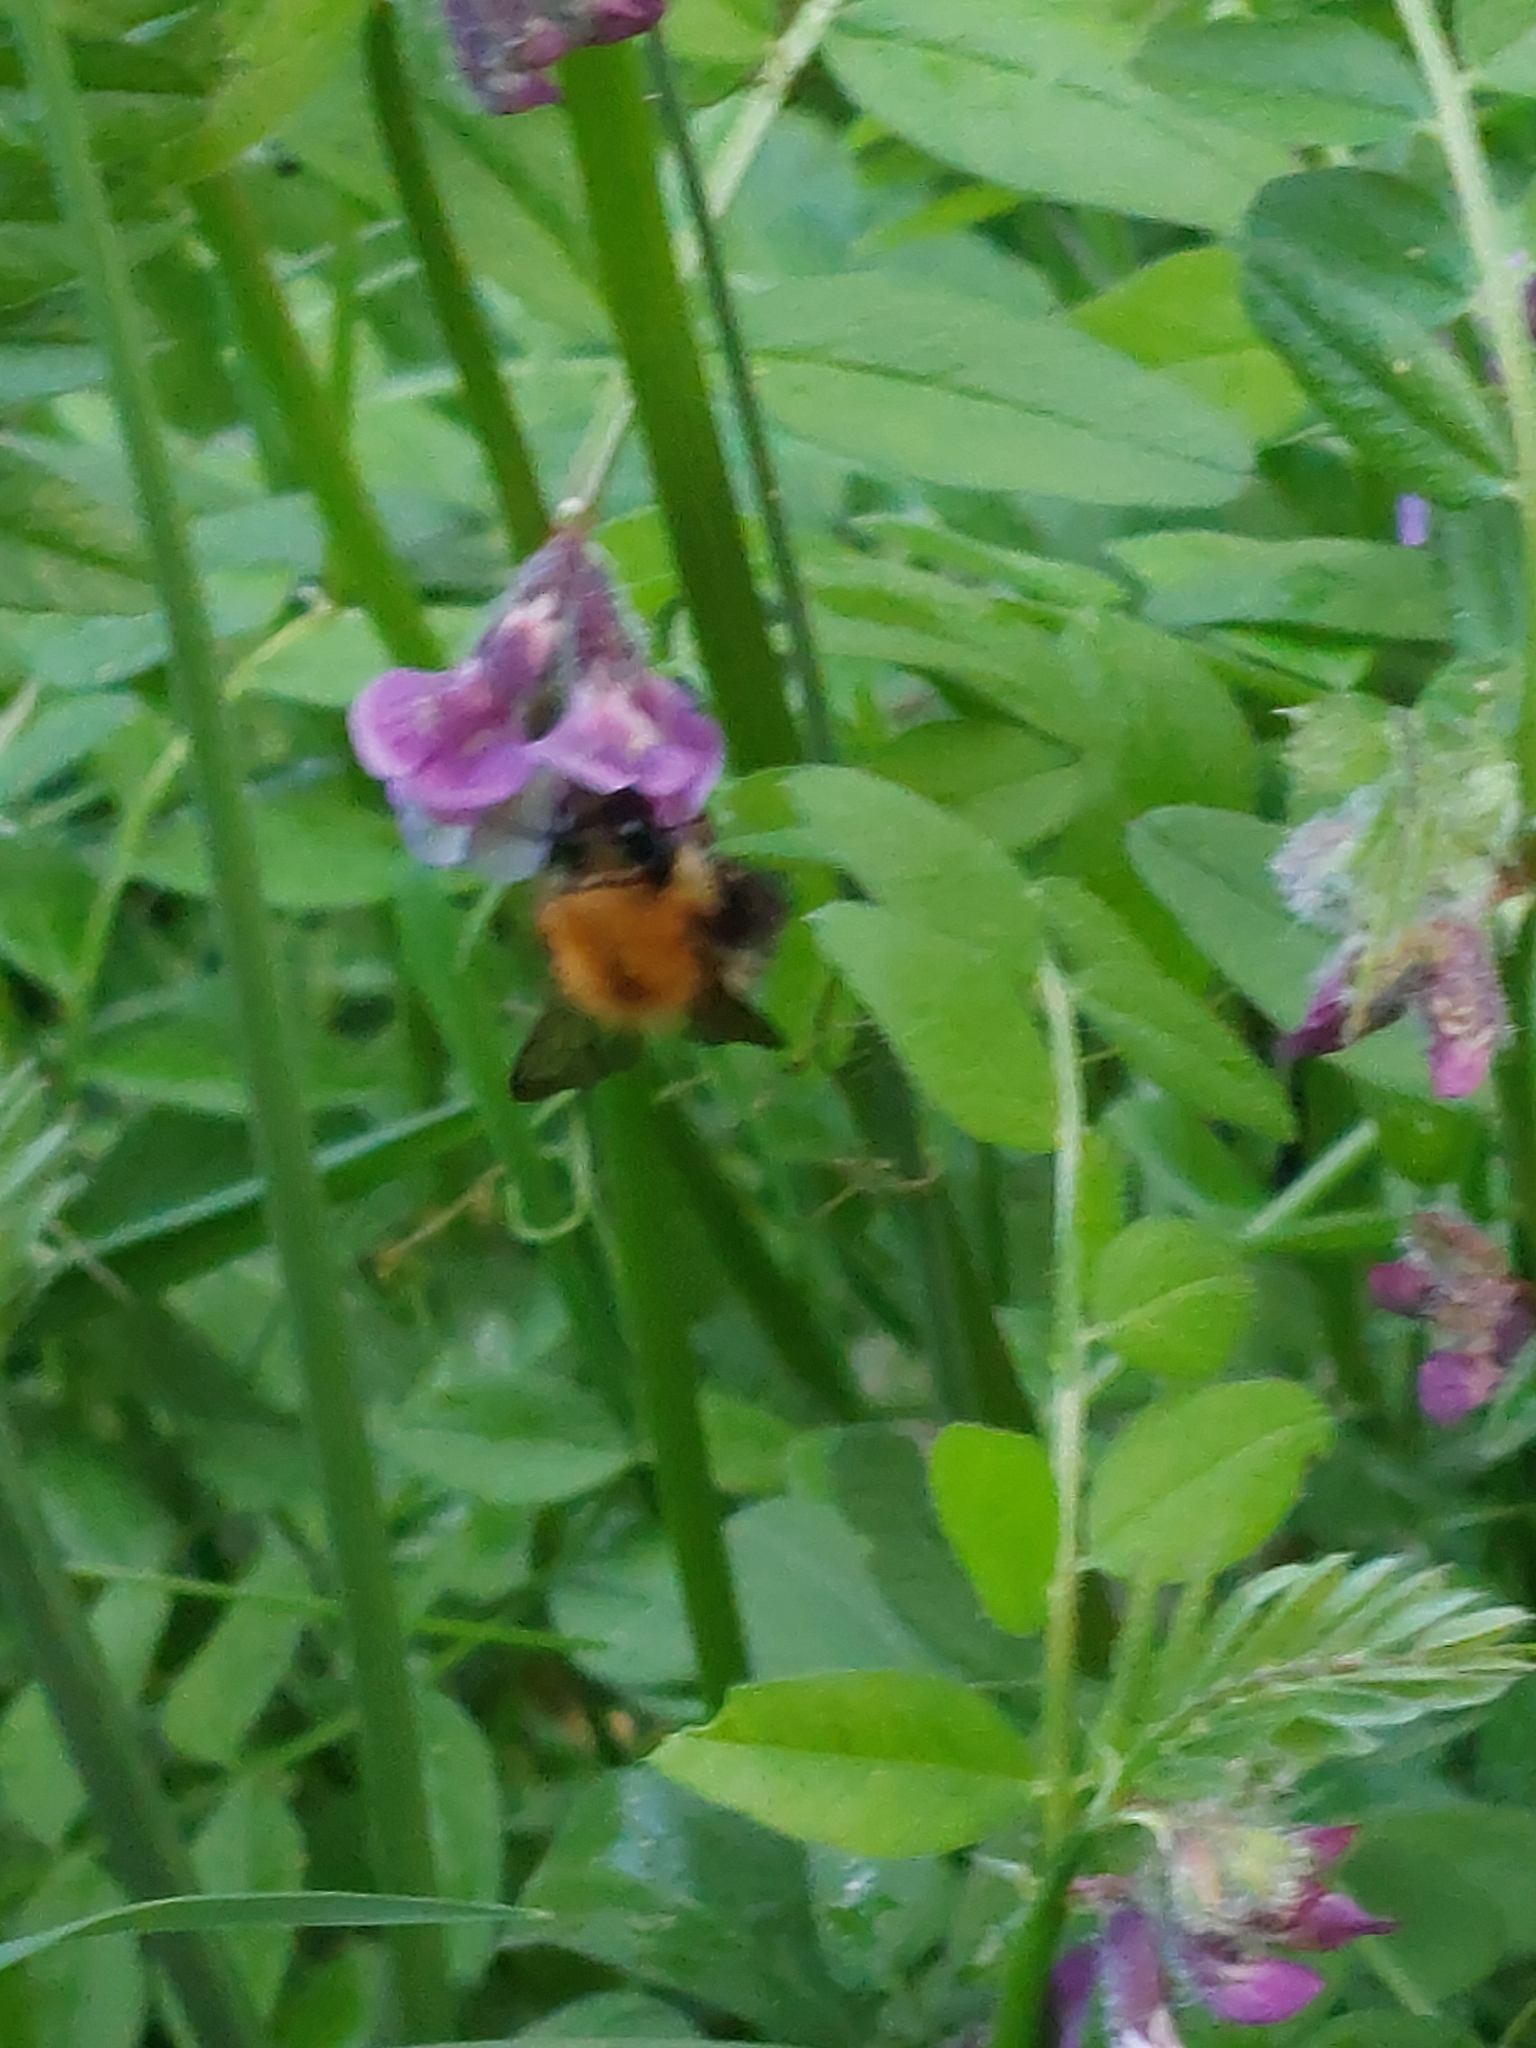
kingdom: Animalia
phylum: Arthropoda
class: Insecta
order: Hymenoptera
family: Apidae
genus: Bombus
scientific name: Bombus pascuorum
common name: Common carder bee
